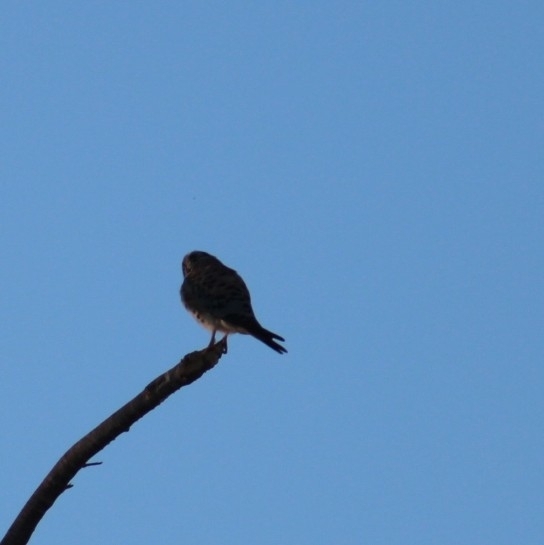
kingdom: Animalia
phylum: Chordata
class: Aves
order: Falconiformes
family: Falconidae
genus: Falco
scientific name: Falco sparverius
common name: American kestrel
